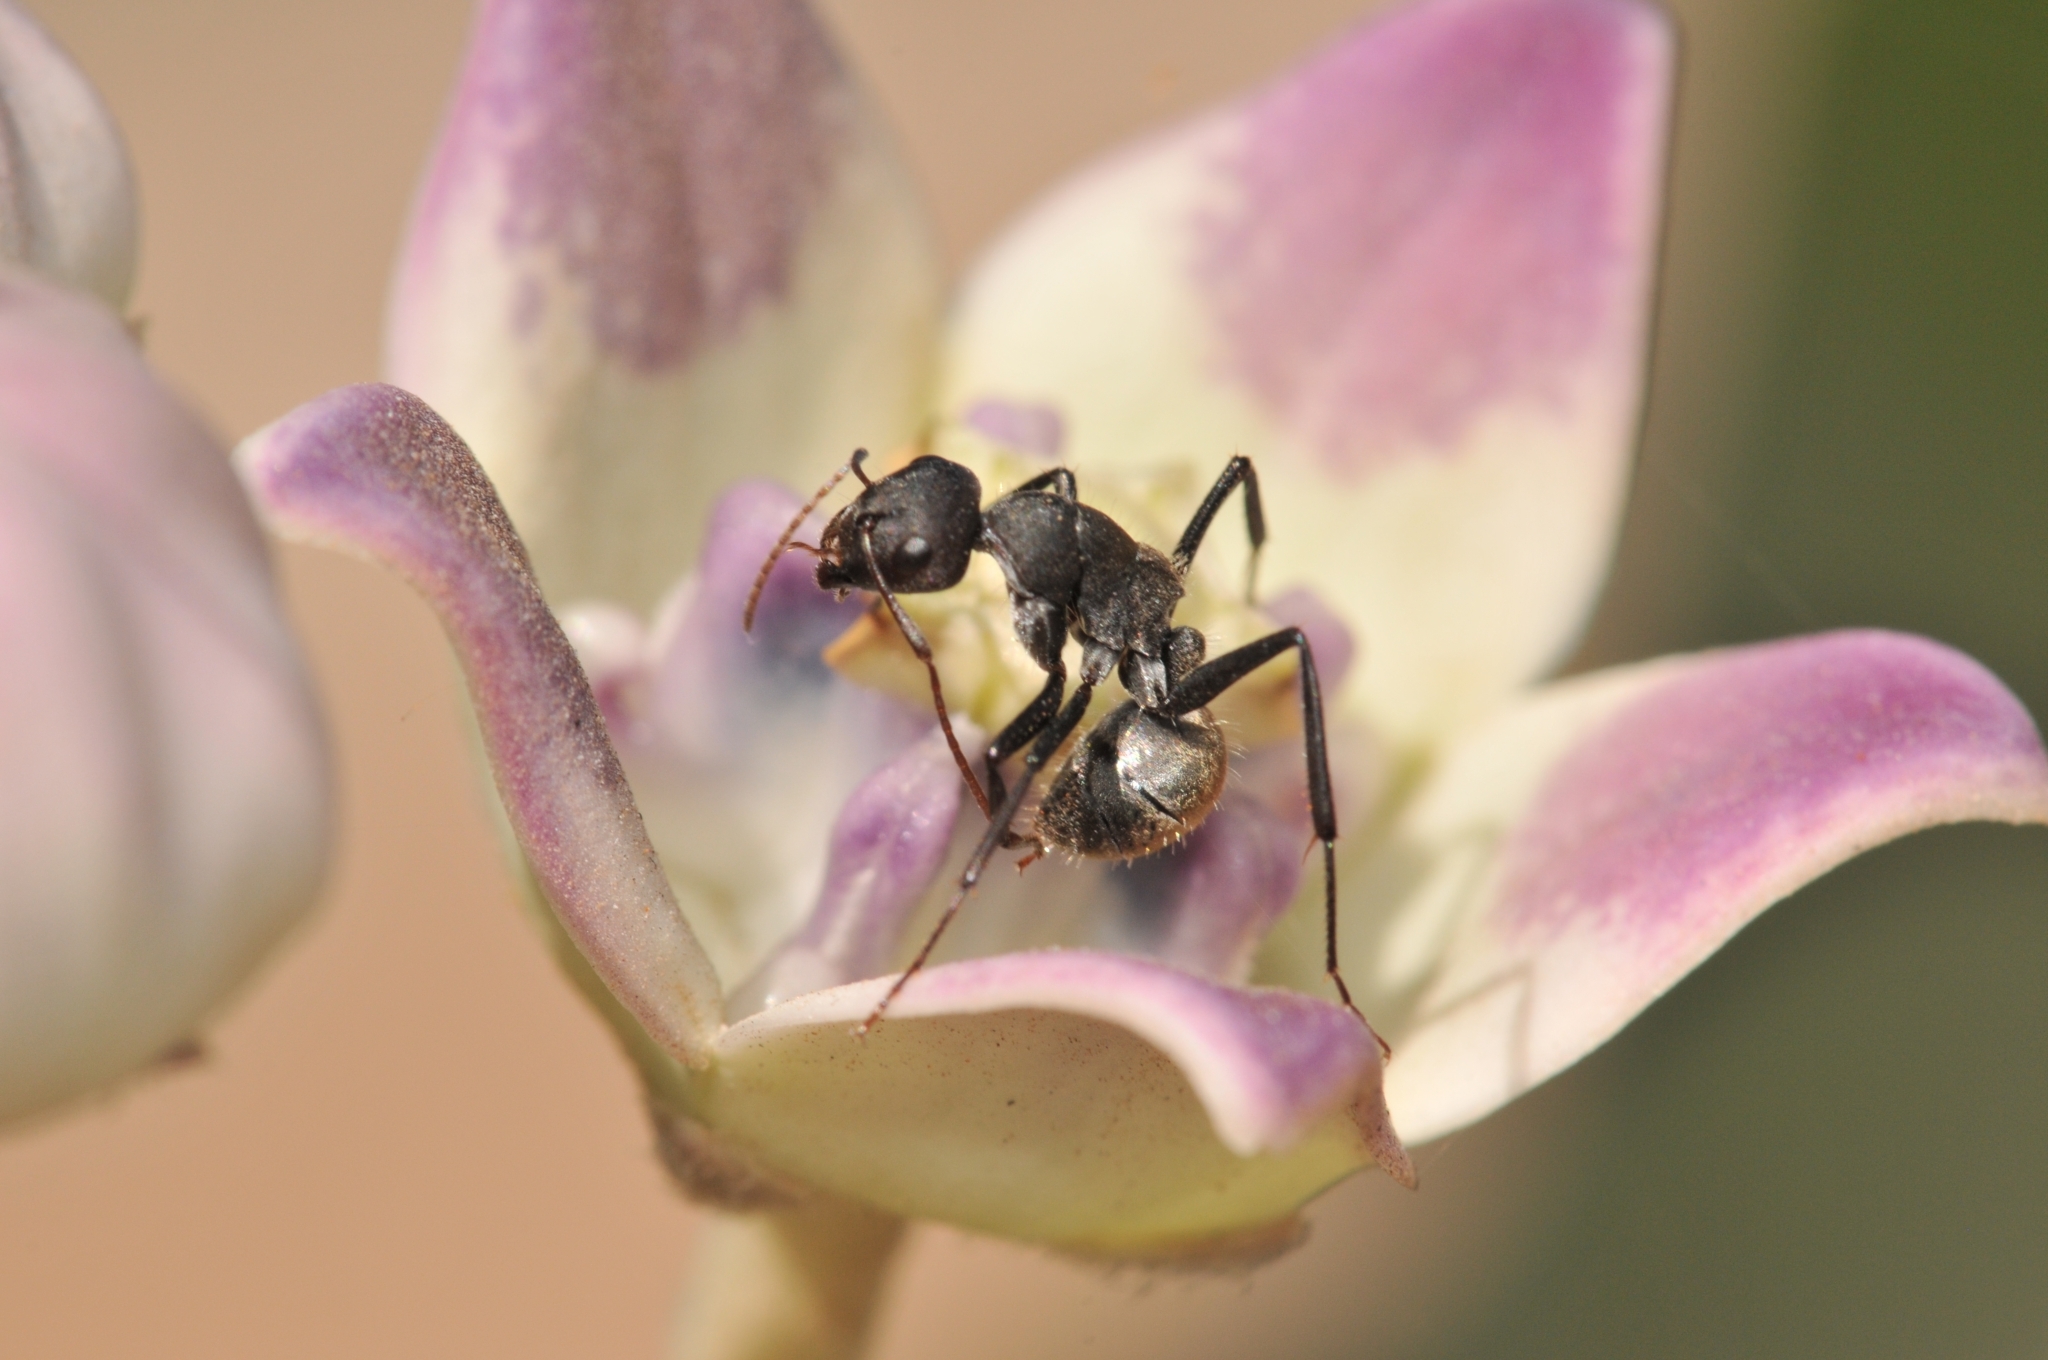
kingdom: Animalia
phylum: Arthropoda
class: Insecta
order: Hymenoptera
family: Formicidae
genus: Camponotus
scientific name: Camponotus sericeus
